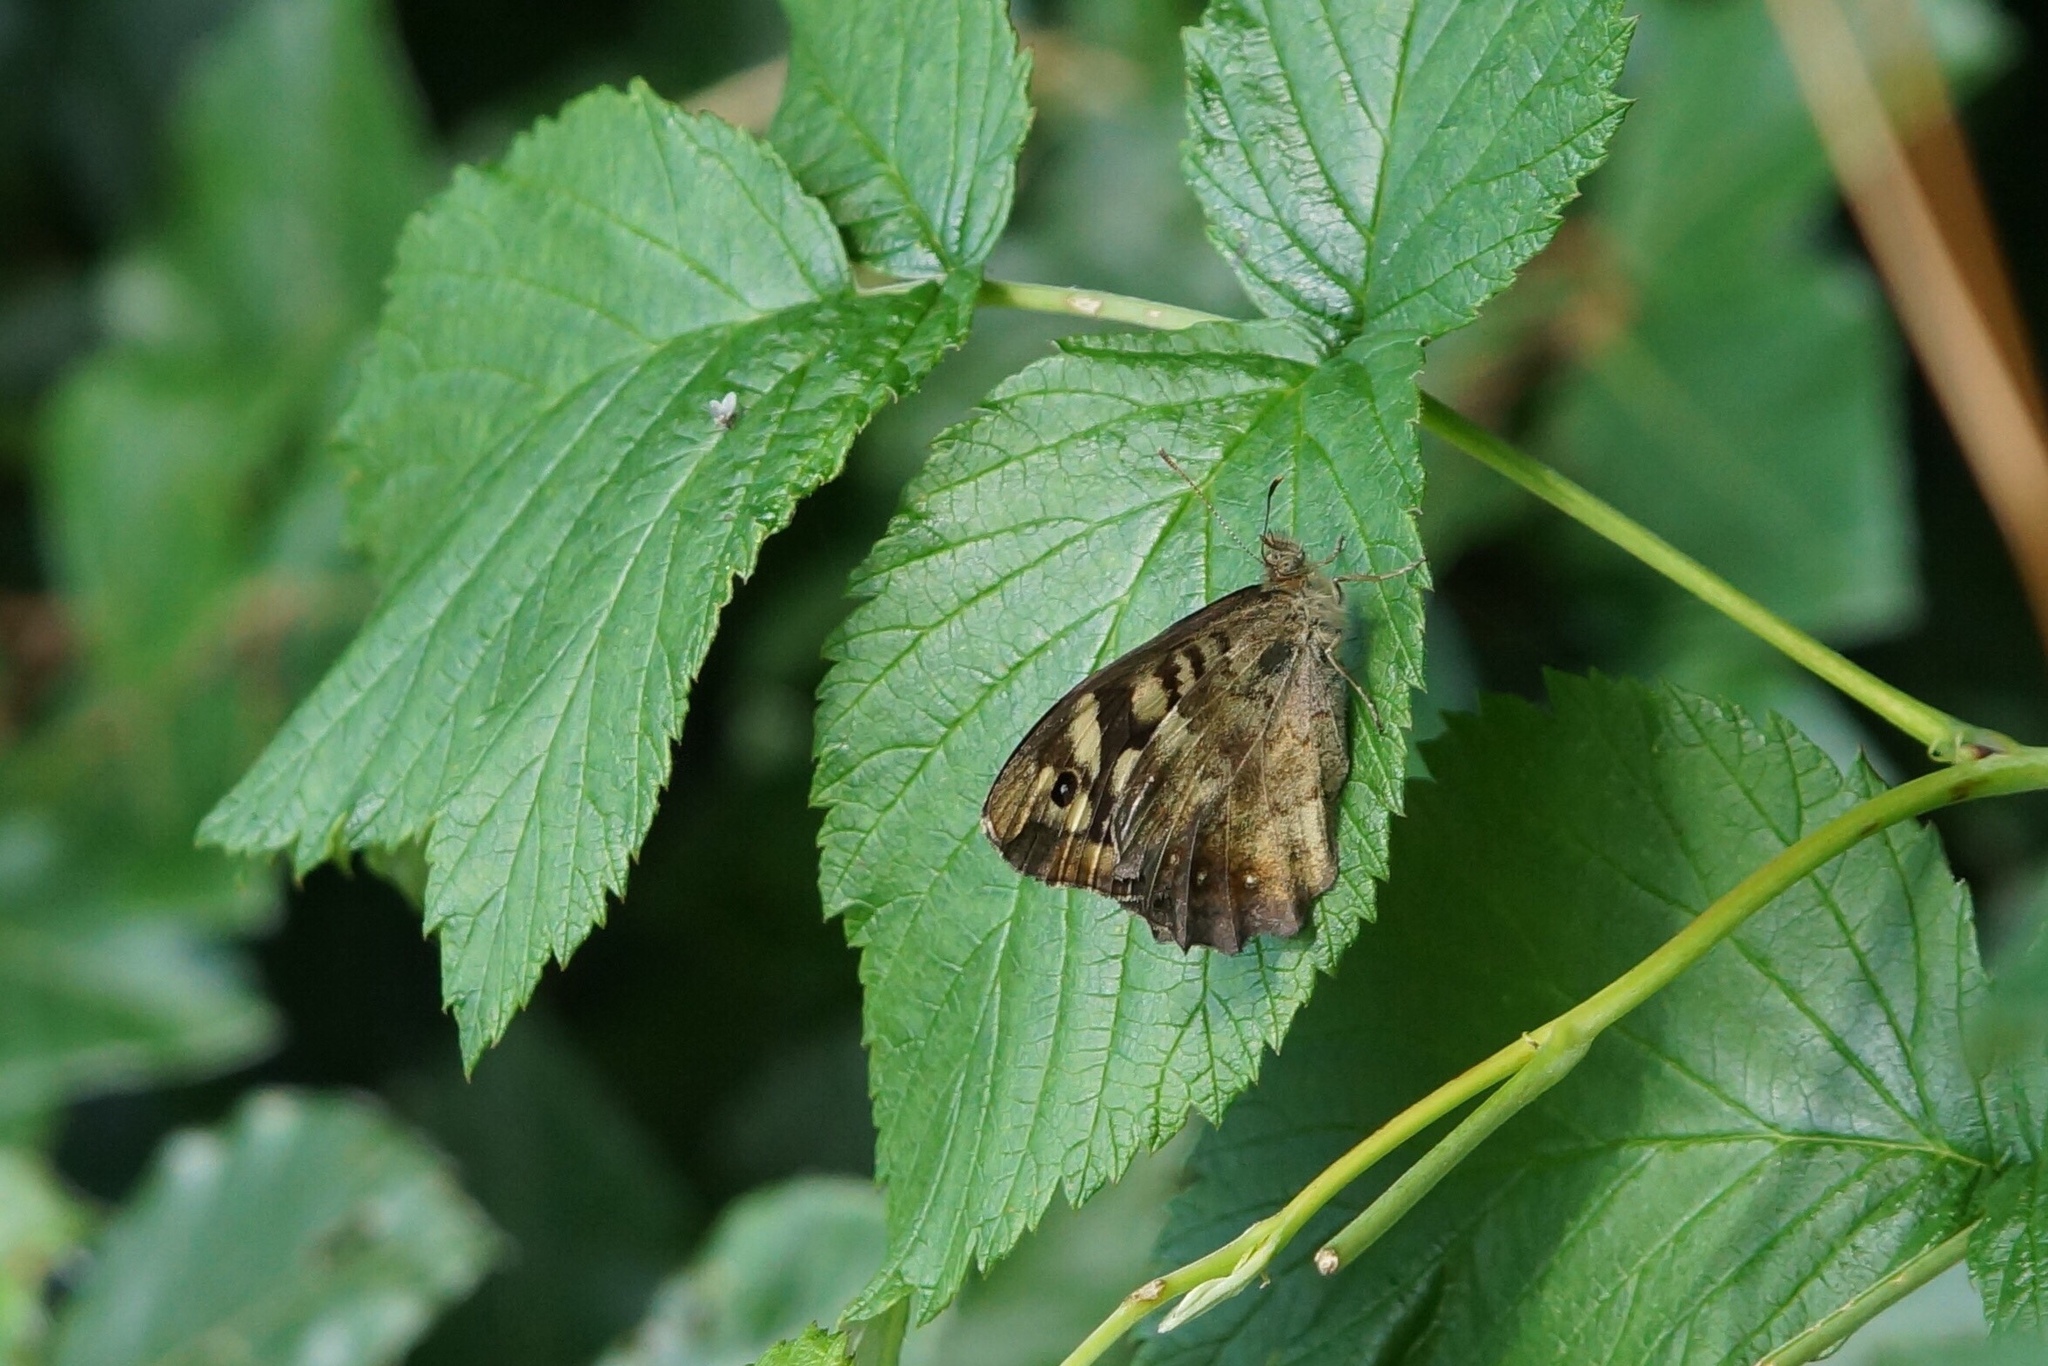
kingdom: Animalia
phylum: Arthropoda
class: Insecta
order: Lepidoptera
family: Nymphalidae
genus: Pararge
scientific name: Pararge aegeria
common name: Speckled wood
